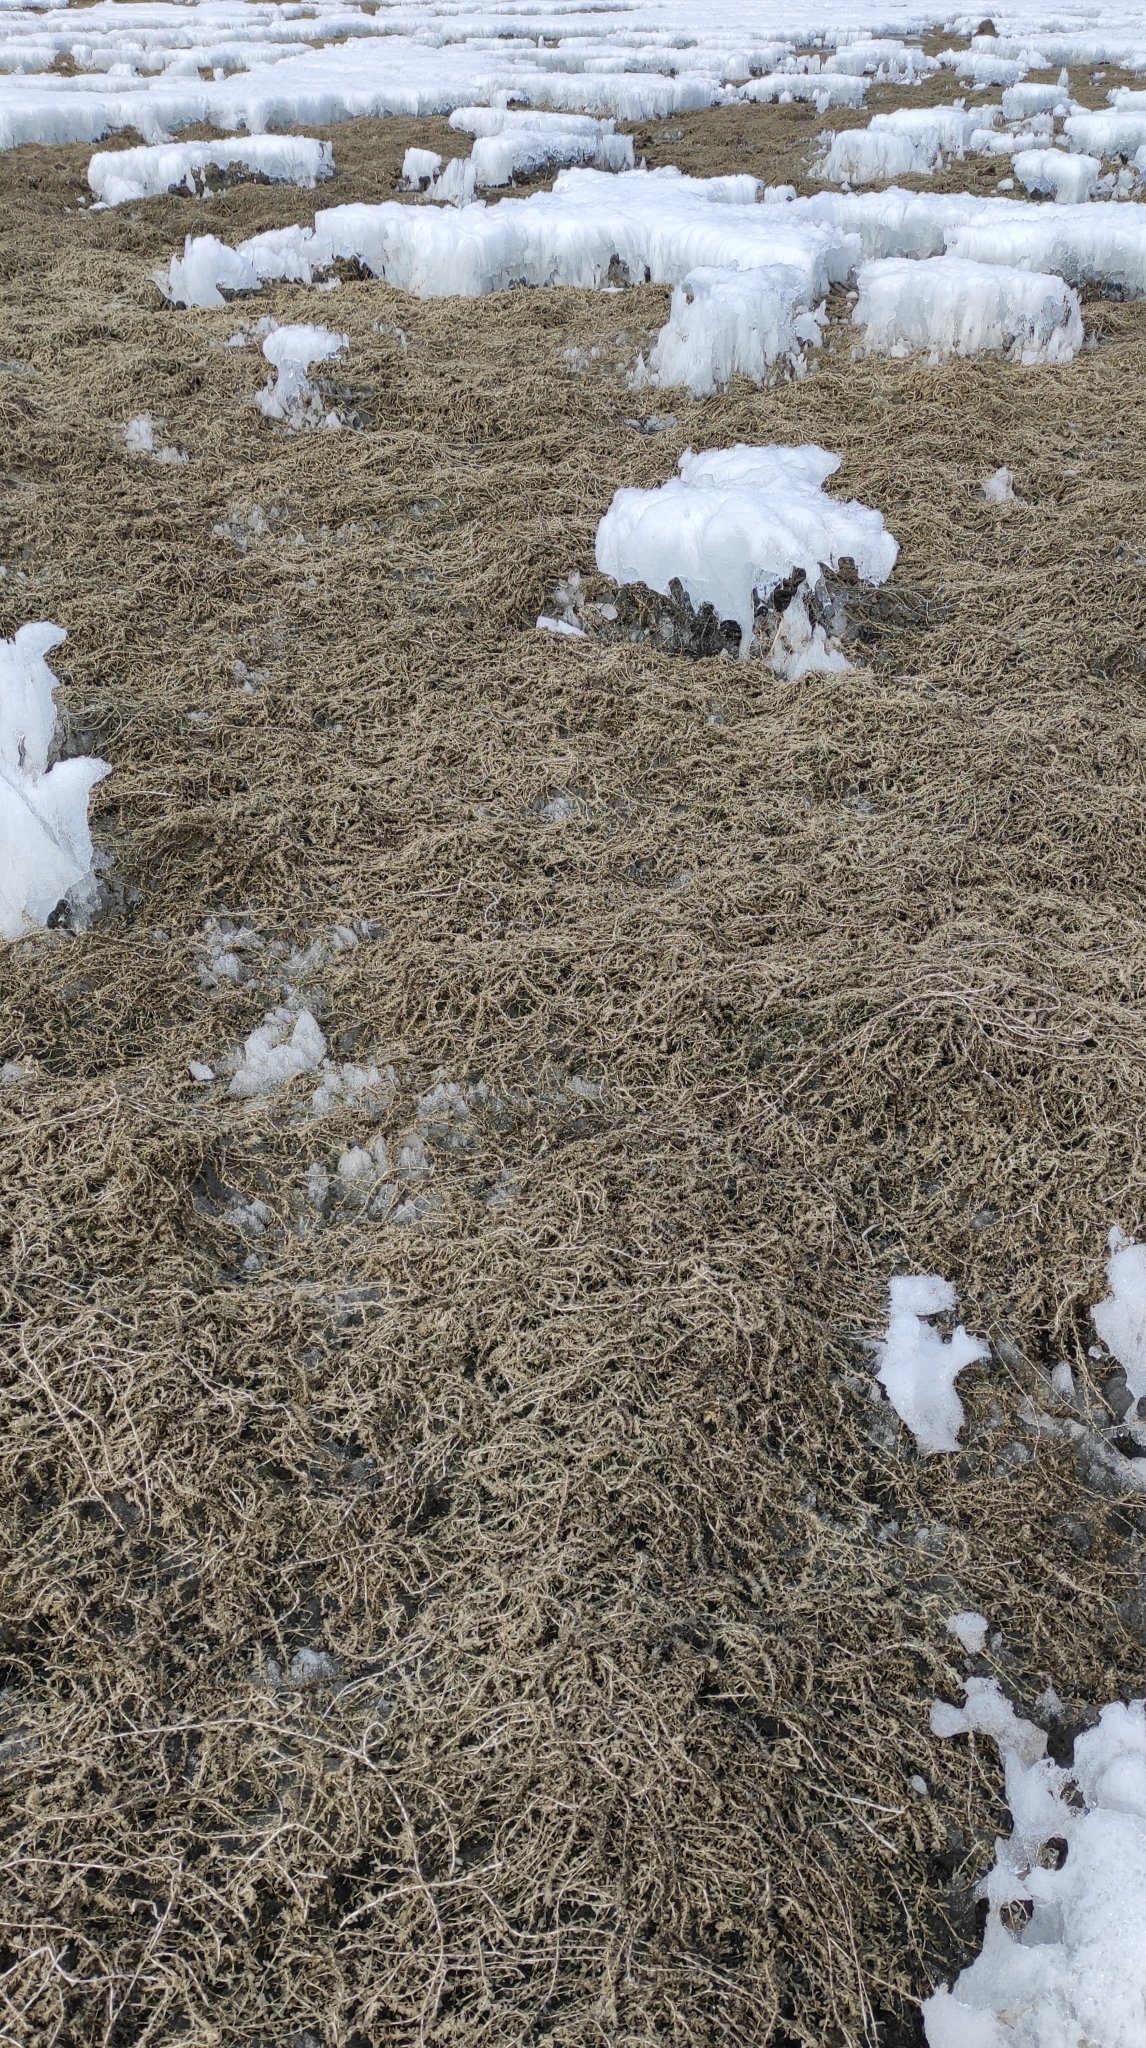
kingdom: Plantae
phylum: Tracheophyta
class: Liliopsida
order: Alismatales
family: Hydrocharitaceae
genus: Elodea
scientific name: Elodea canadensis
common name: Canadian waterweed
